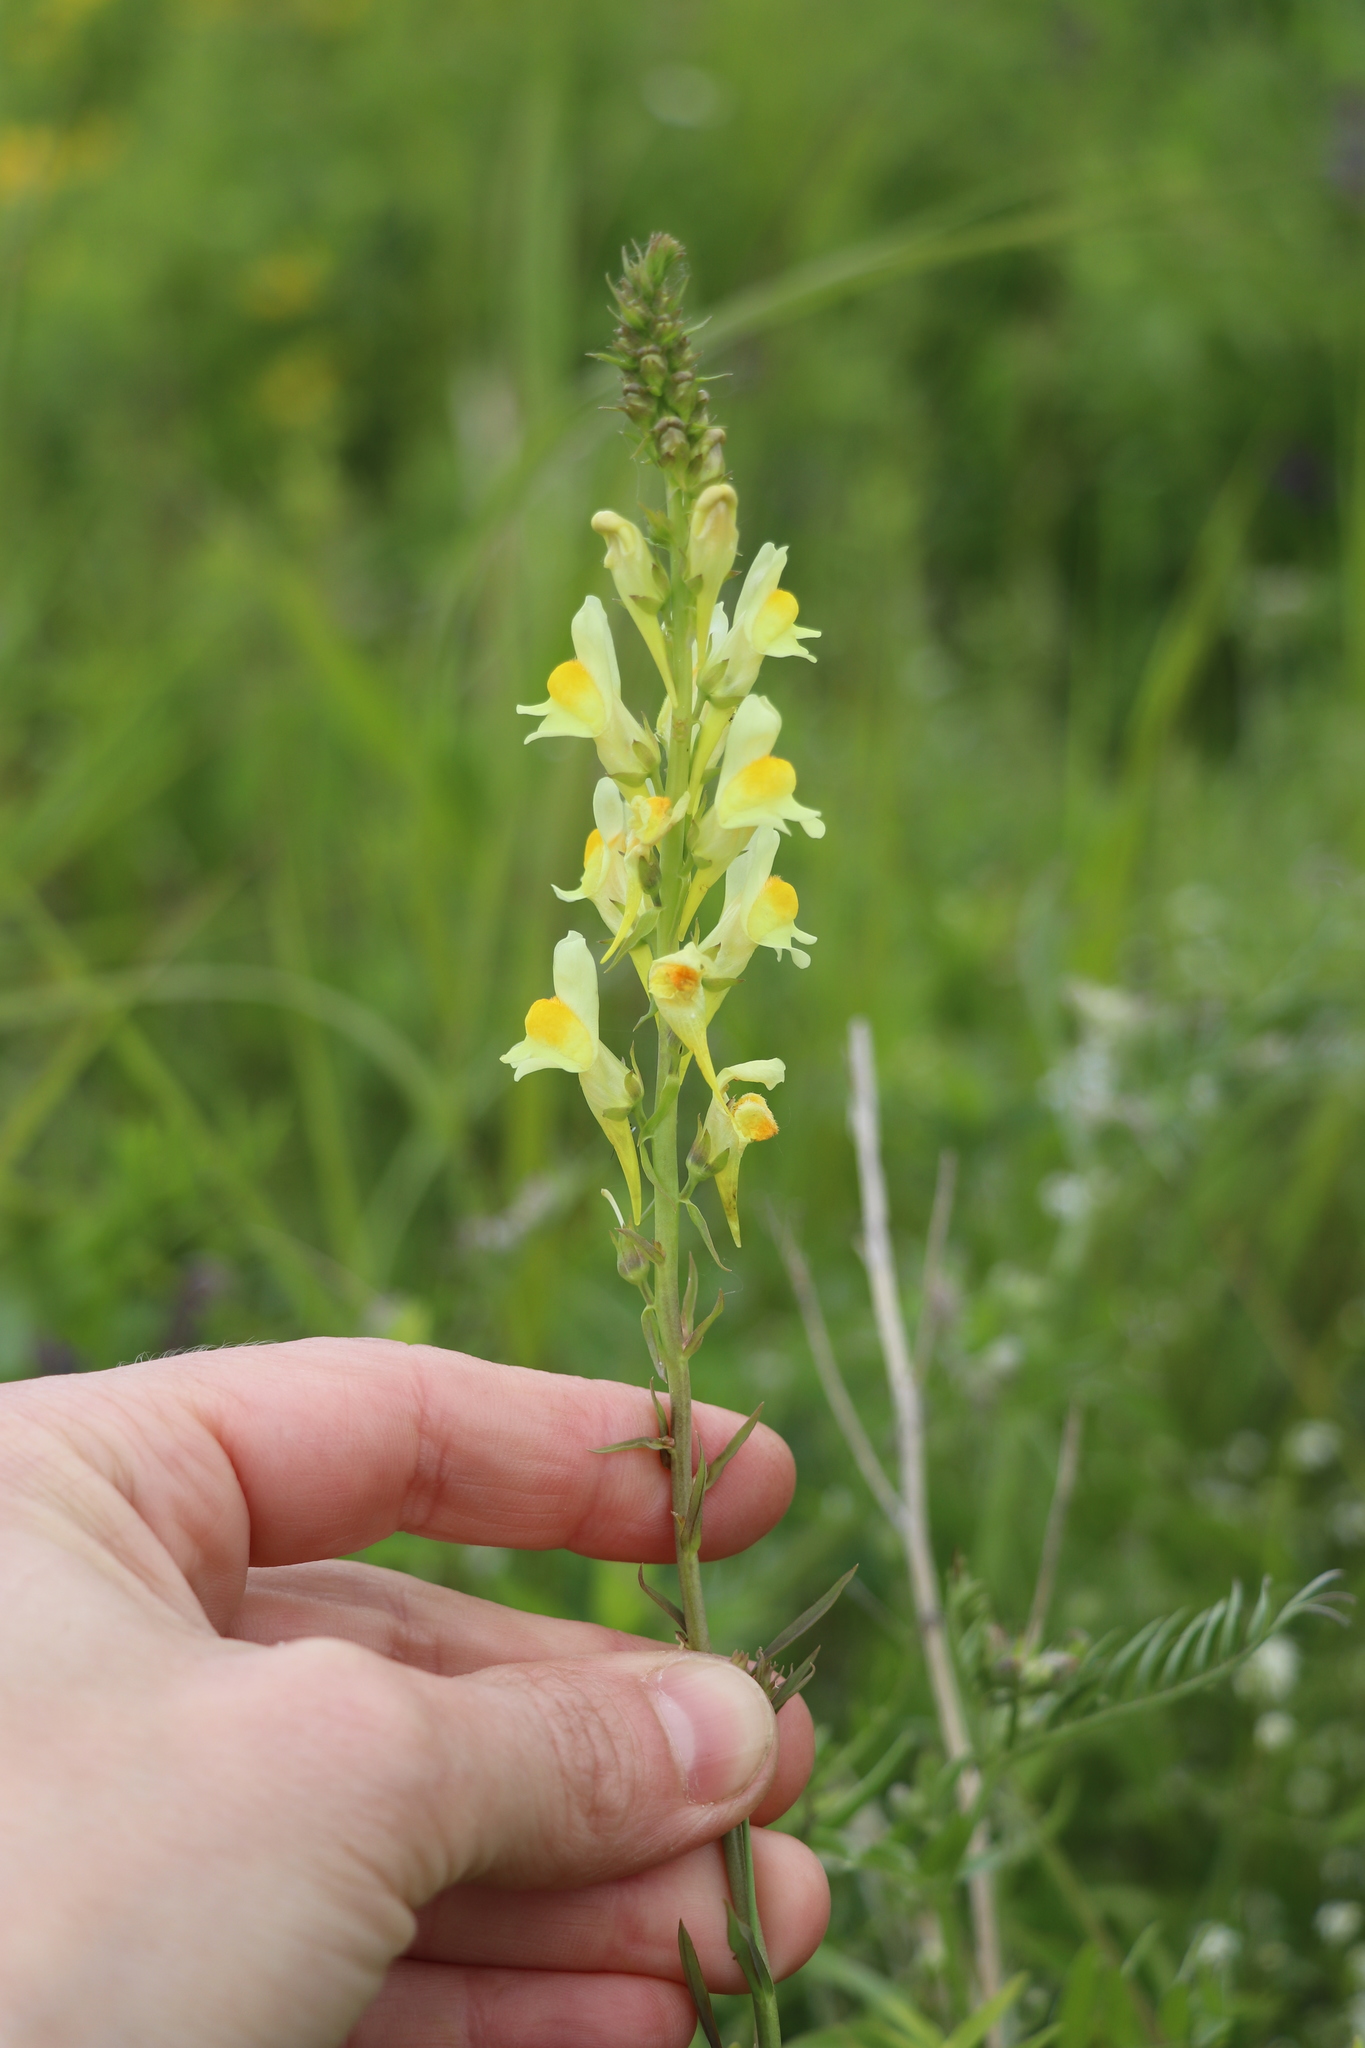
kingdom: Plantae
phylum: Tracheophyta
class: Magnoliopsida
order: Lamiales
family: Plantaginaceae
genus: Linaria
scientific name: Linaria vulgaris
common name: Butter and eggs
